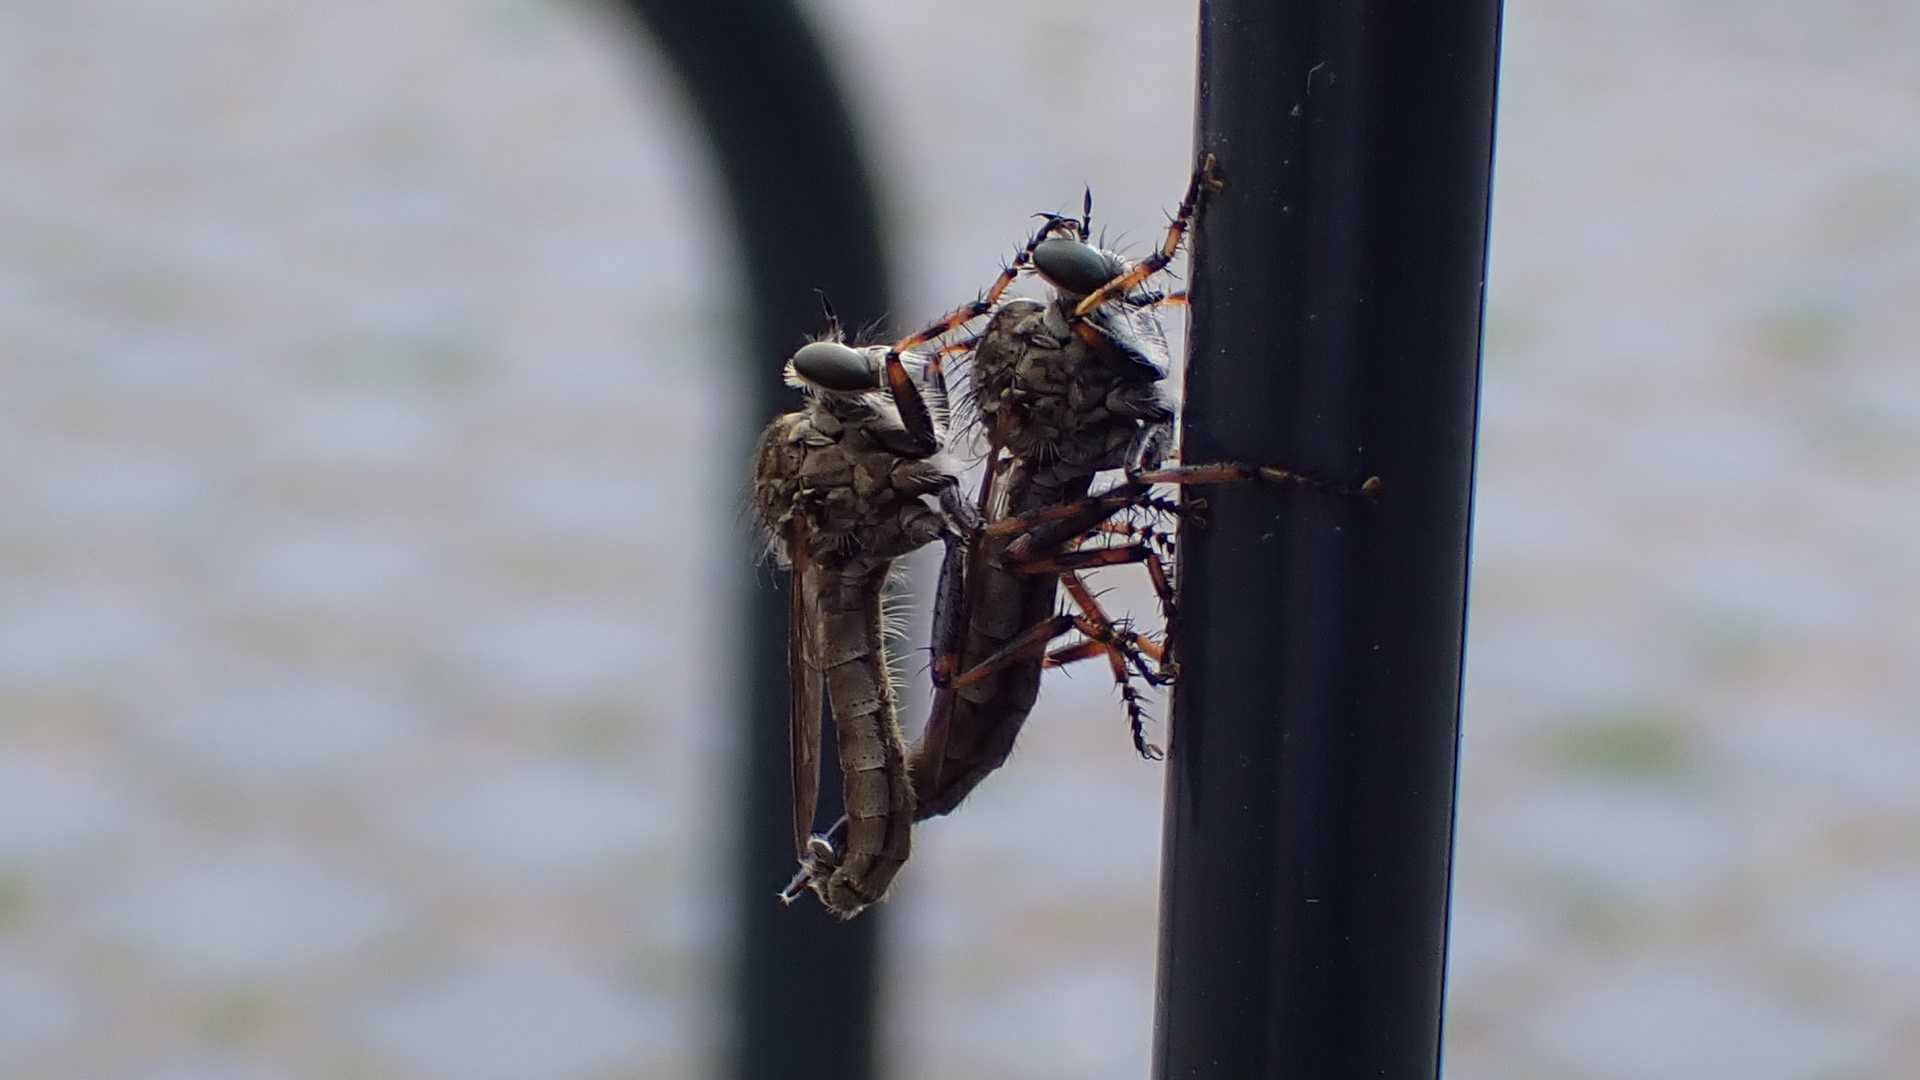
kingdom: Animalia
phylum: Arthropoda
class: Insecta
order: Diptera
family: Asilidae
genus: Epitriptus
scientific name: Epitriptus cingulatus
